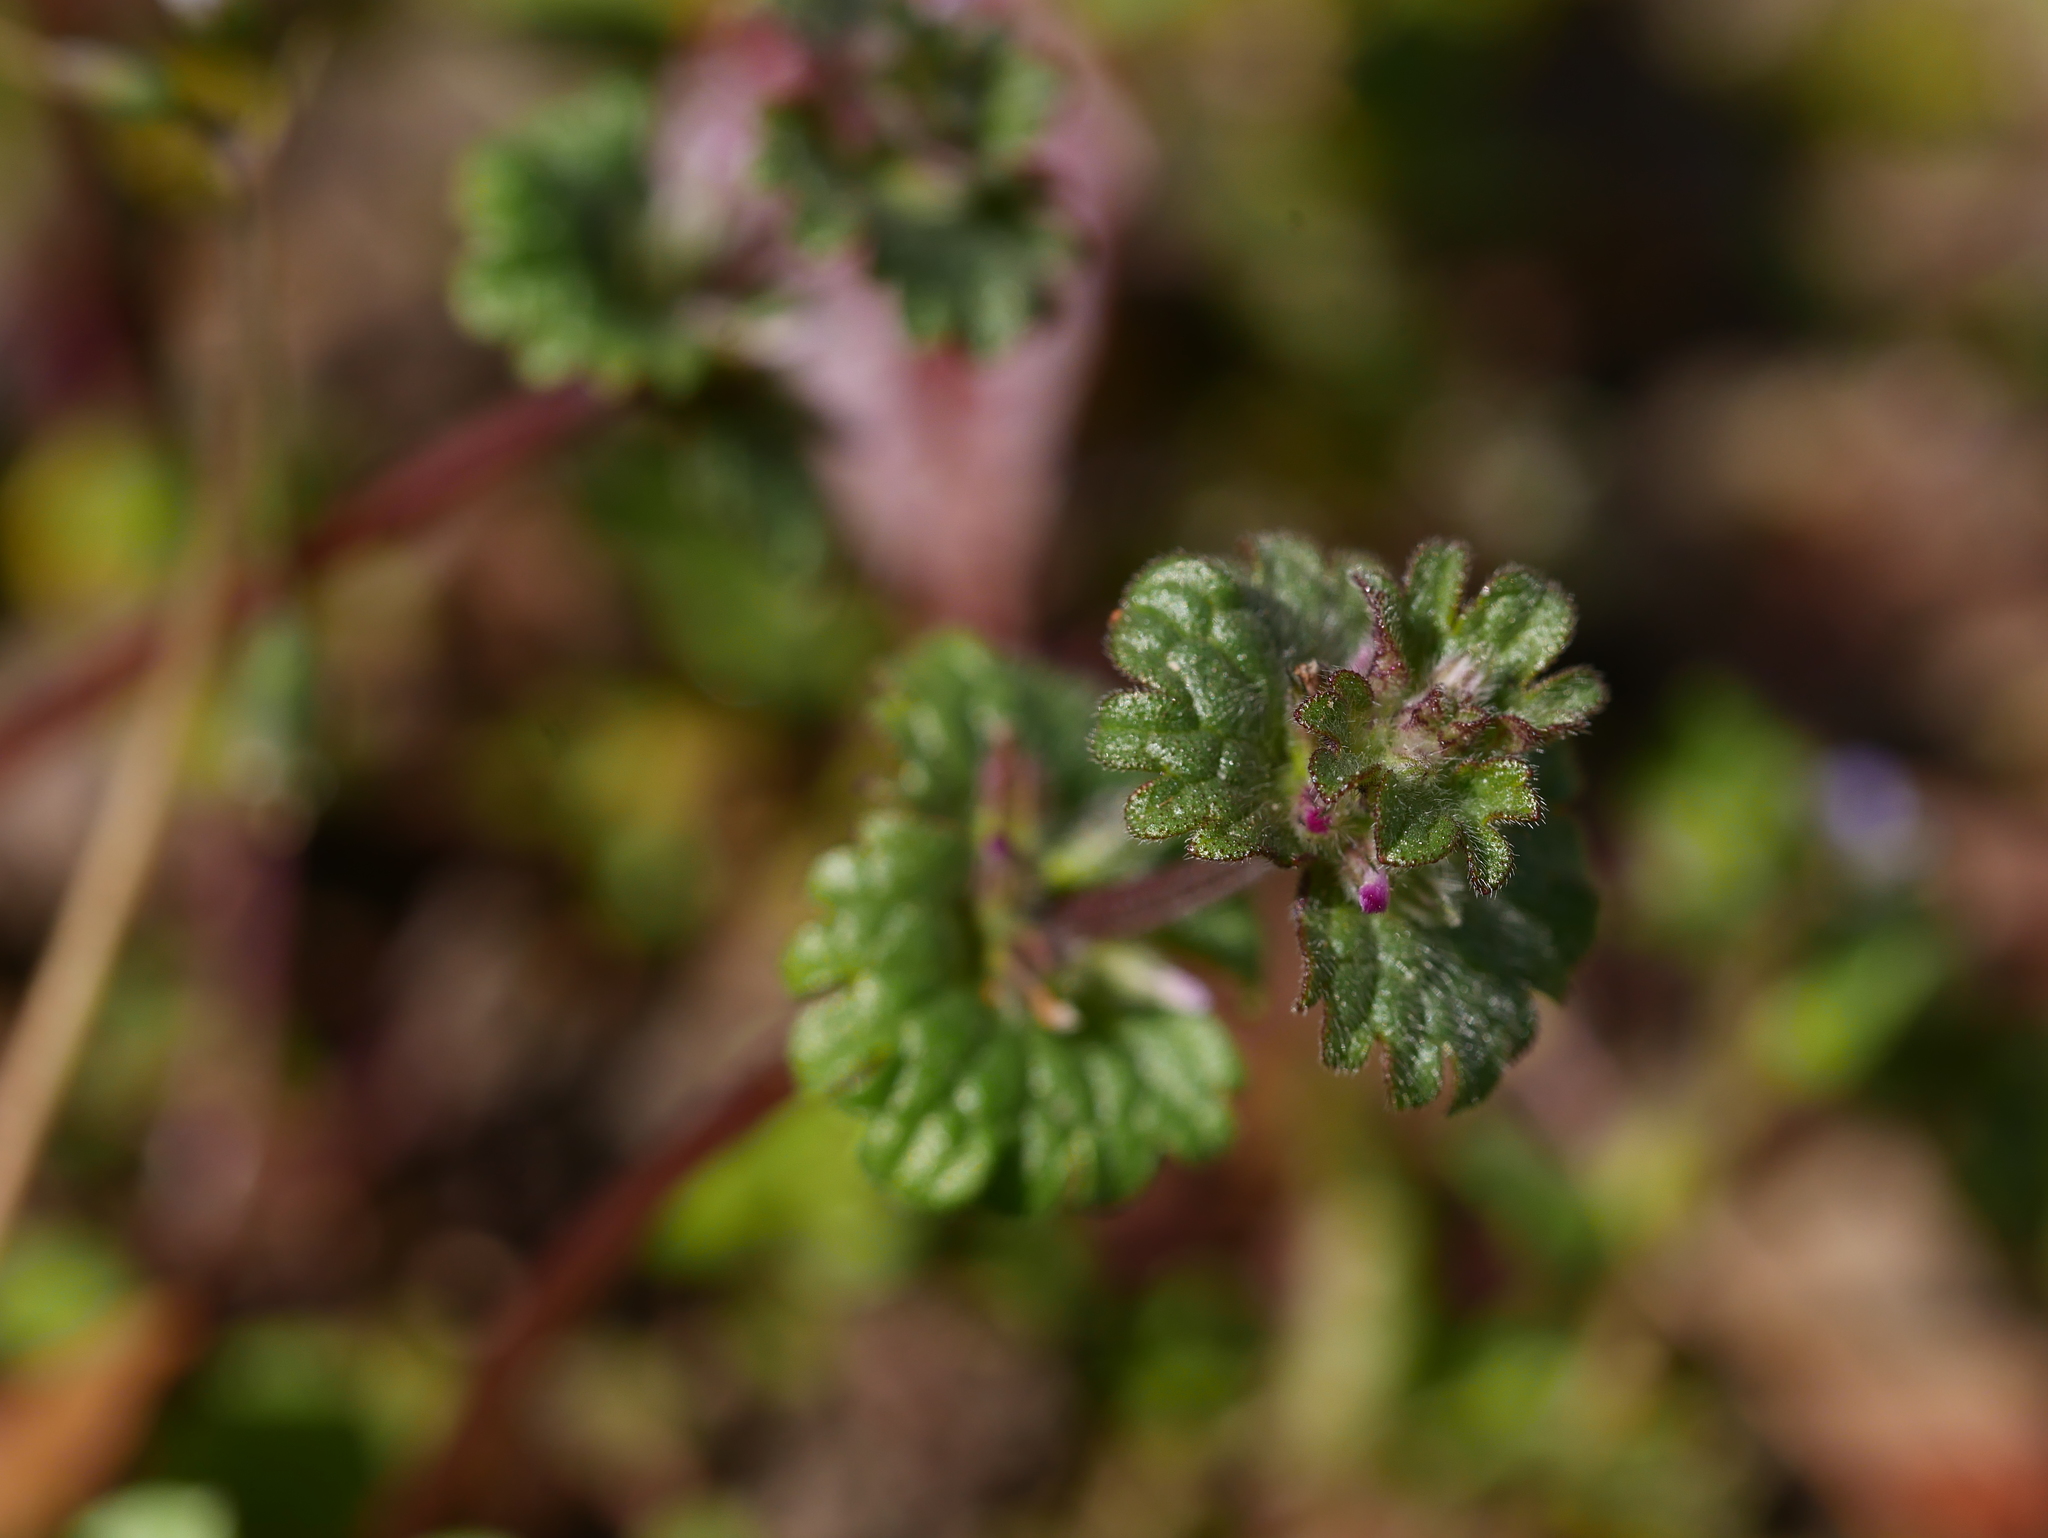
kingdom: Plantae
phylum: Tracheophyta
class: Magnoliopsida
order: Lamiales
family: Lamiaceae
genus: Lamium
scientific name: Lamium amplexicaule
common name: Henbit dead-nettle
